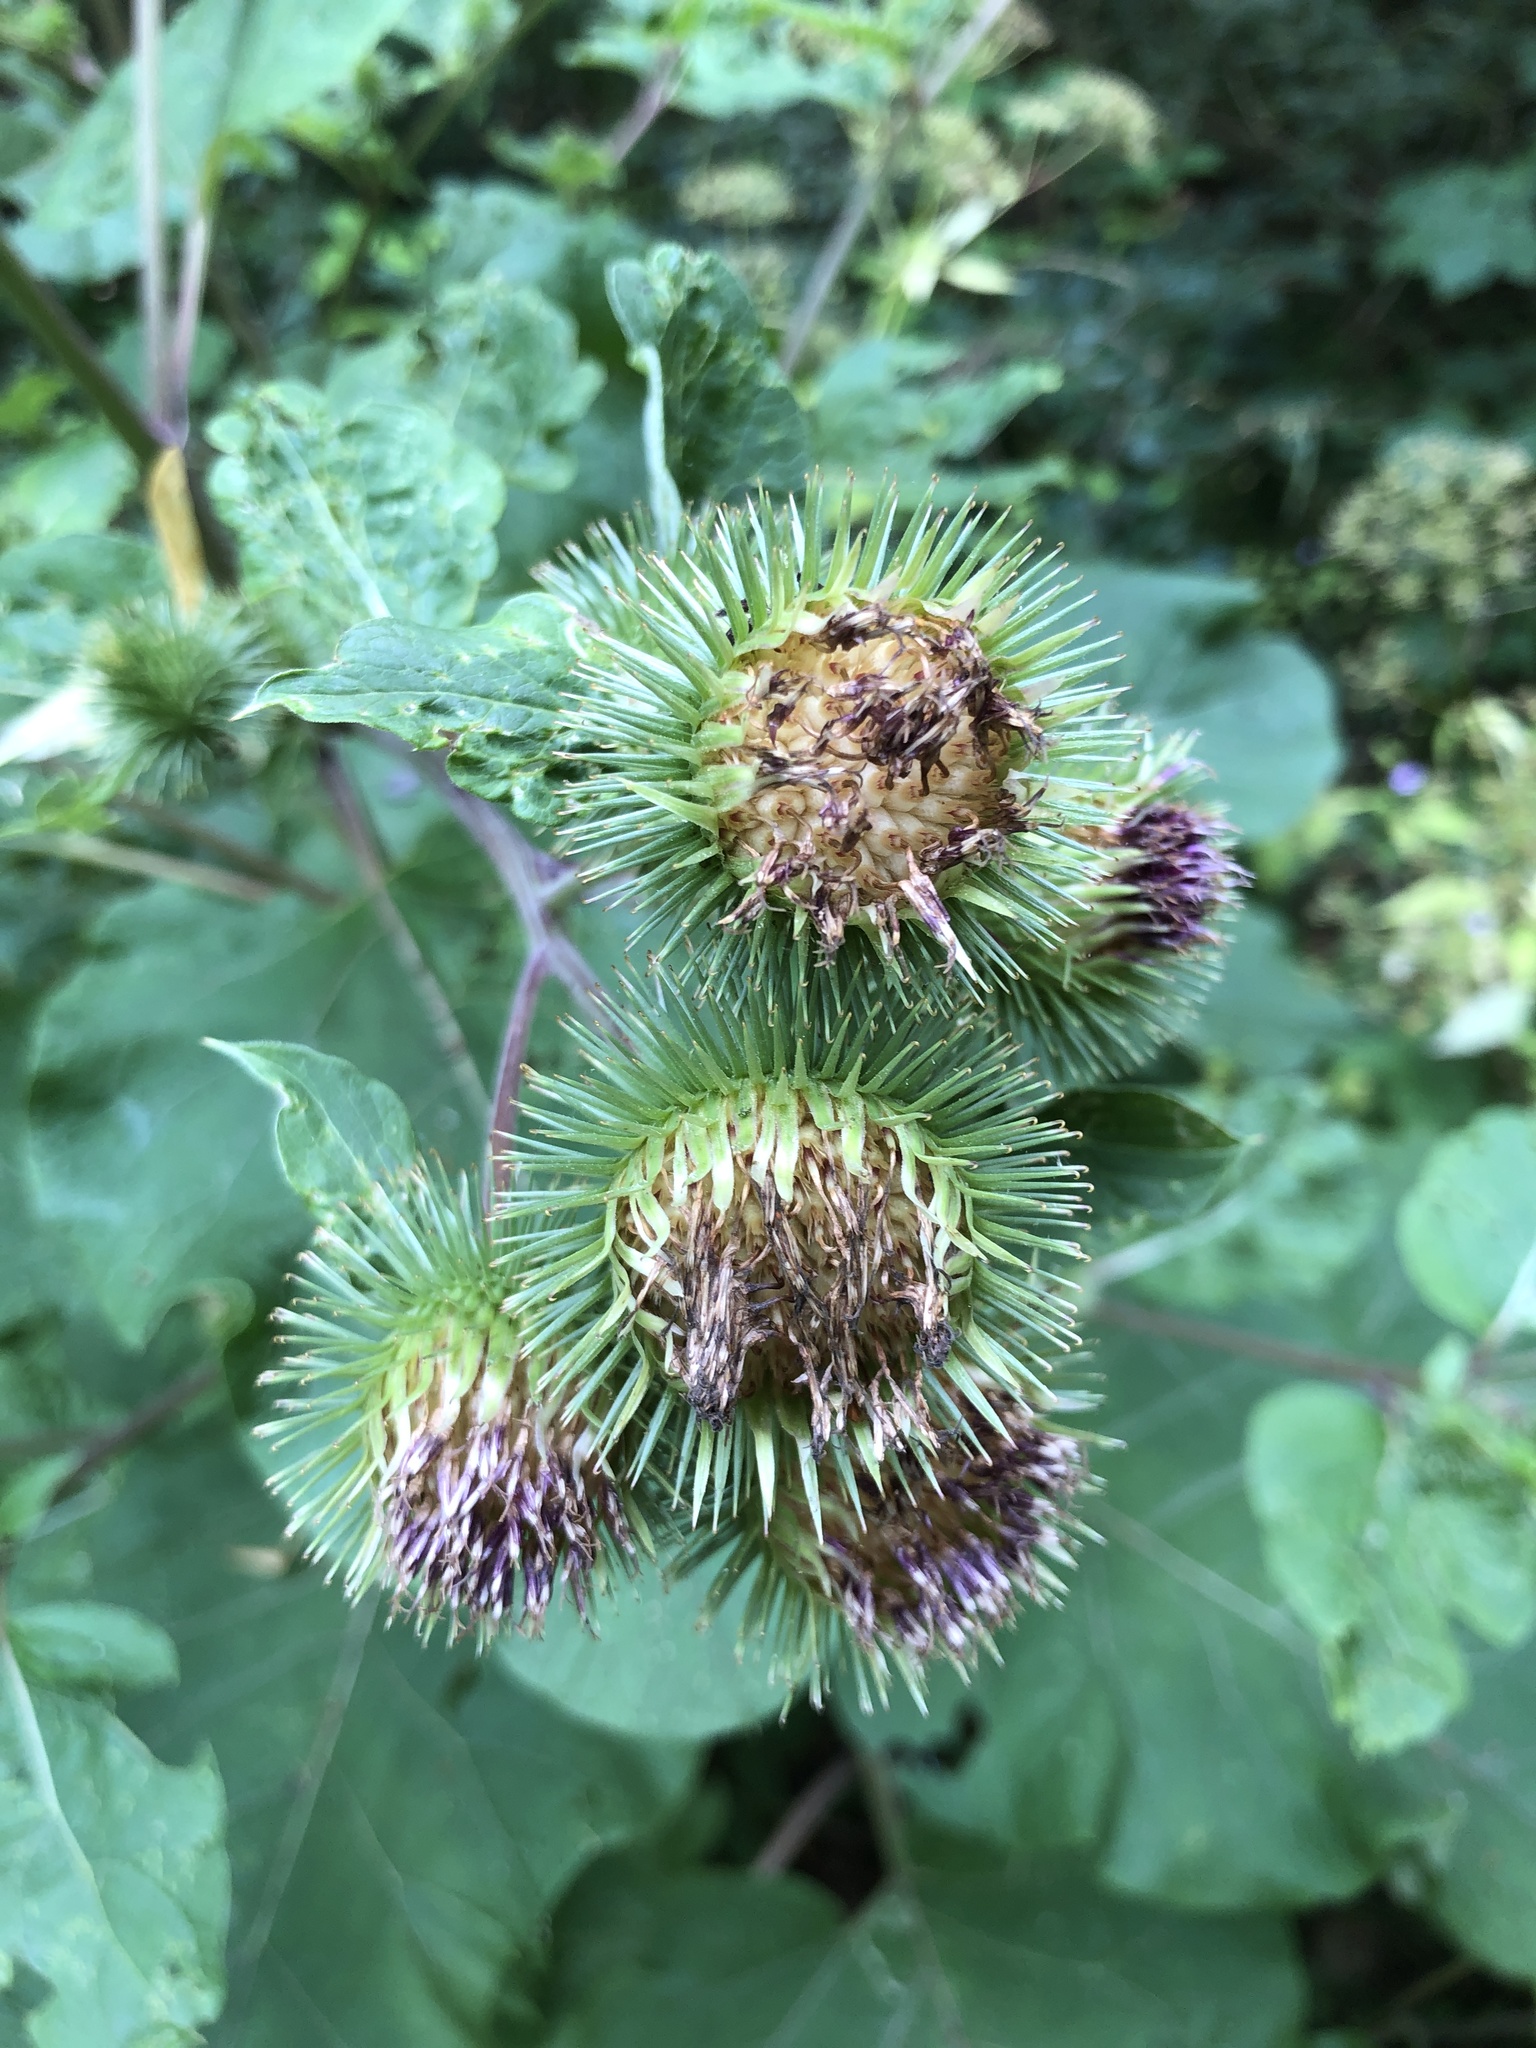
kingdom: Plantae
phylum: Tracheophyta
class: Magnoliopsida
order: Asterales
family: Asteraceae
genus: Arctium
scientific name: Arctium lappa
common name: Greater burdock
